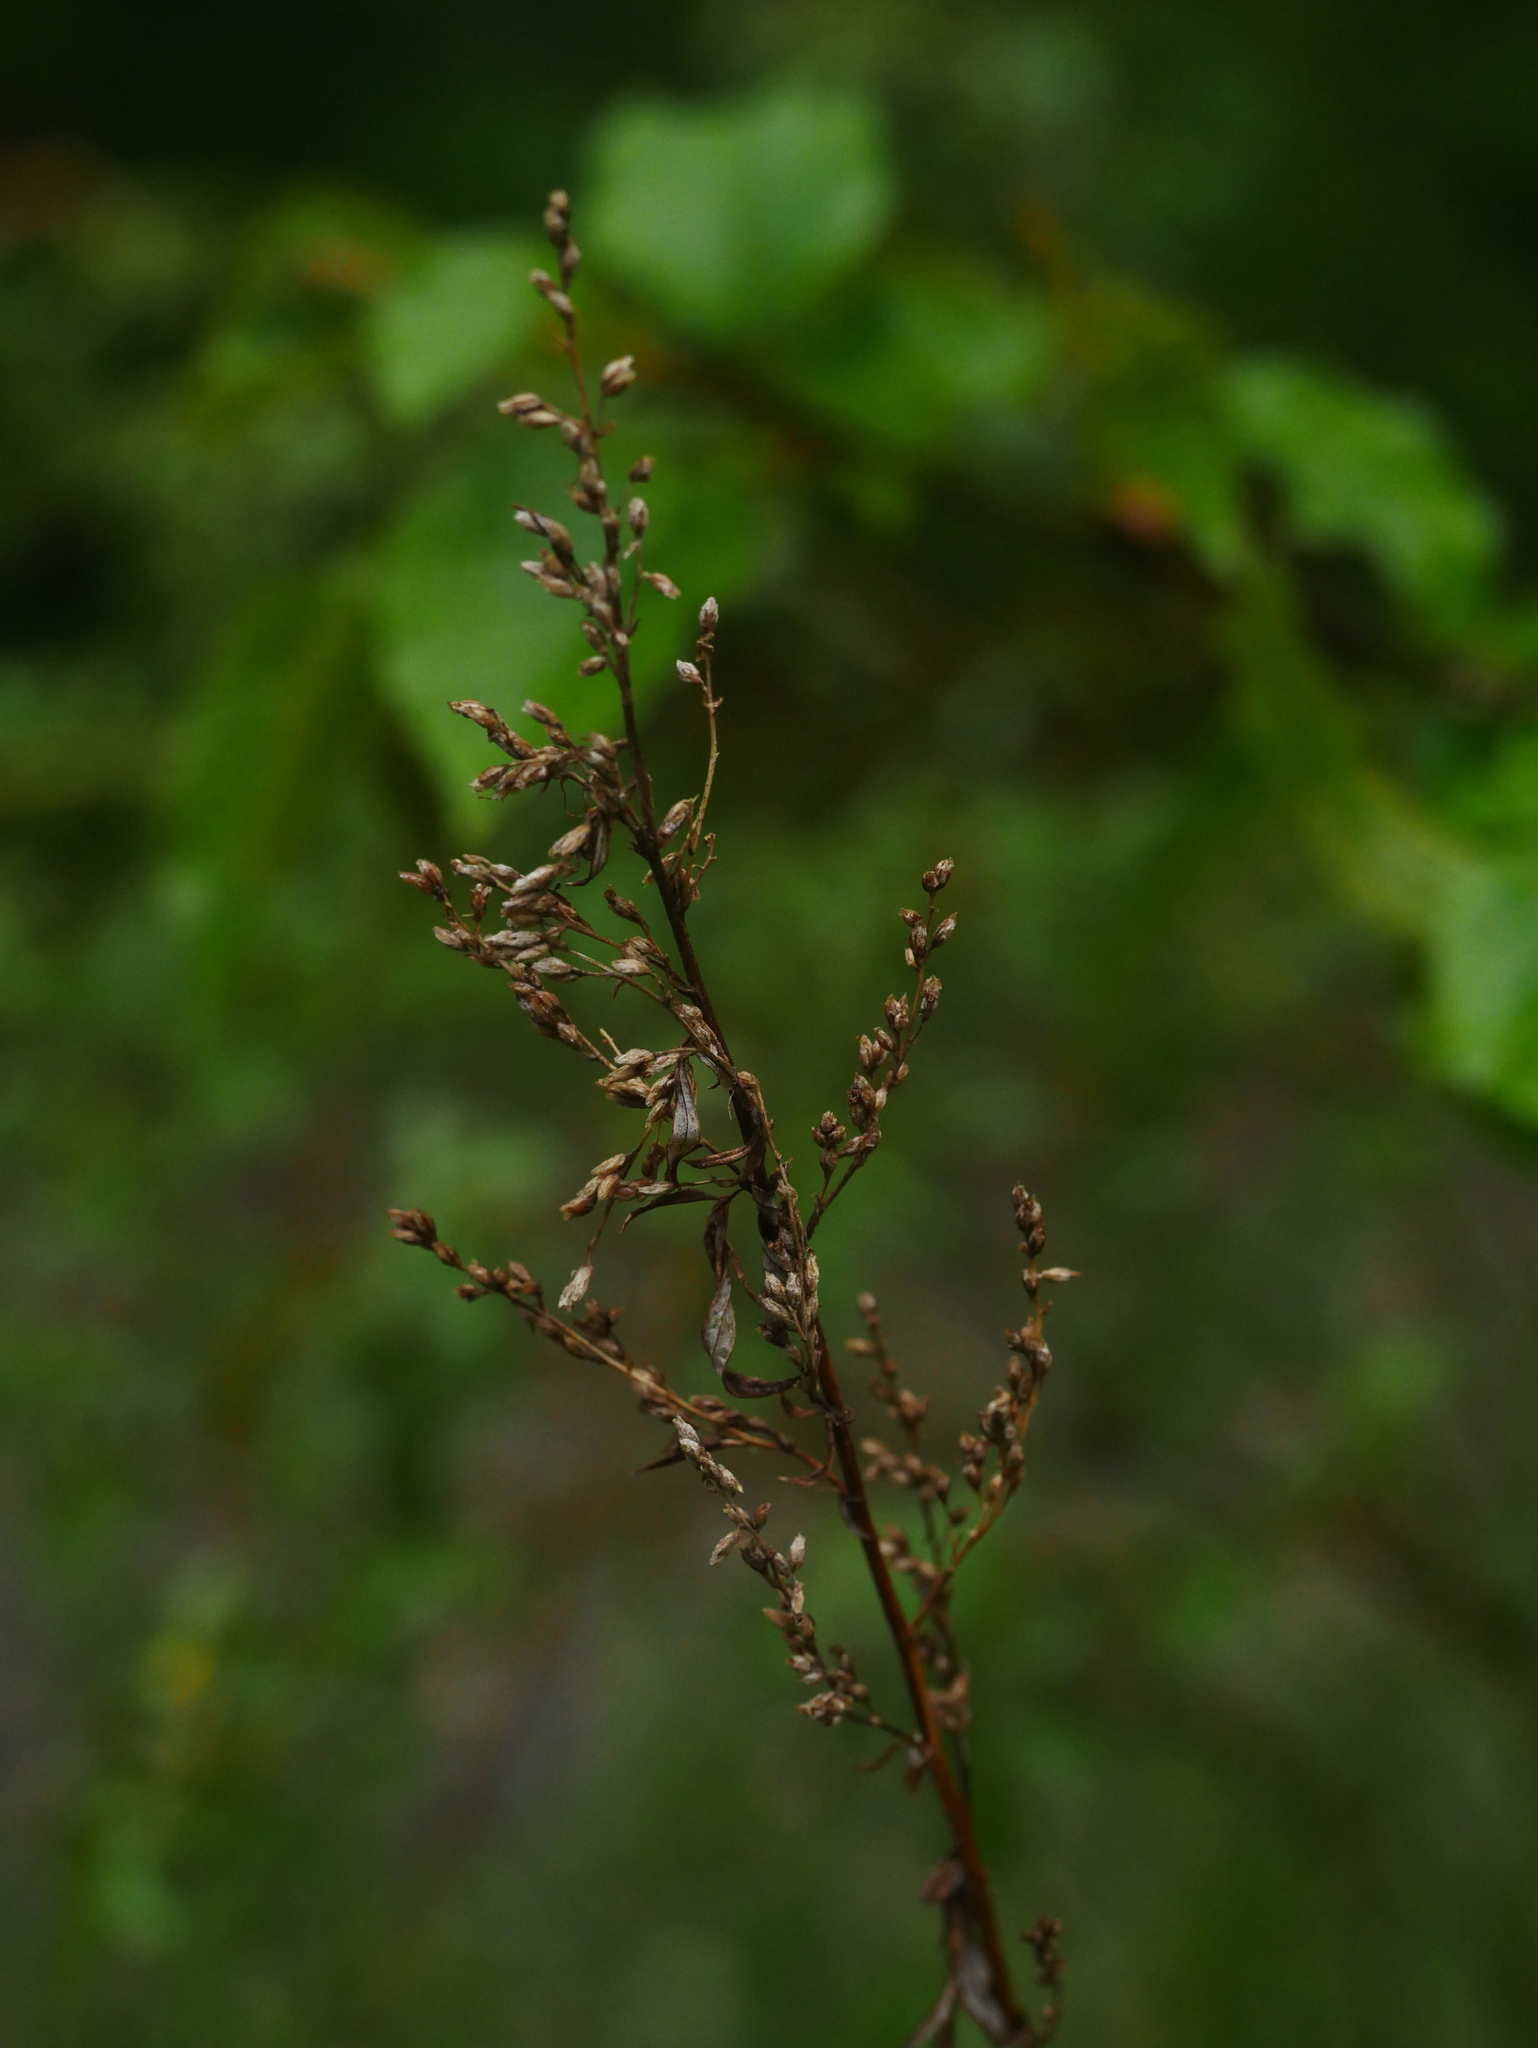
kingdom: Plantae
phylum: Tracheophyta
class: Magnoliopsida
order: Asterales
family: Asteraceae
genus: Artemisia
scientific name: Artemisia vulgaris
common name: Mugwort
